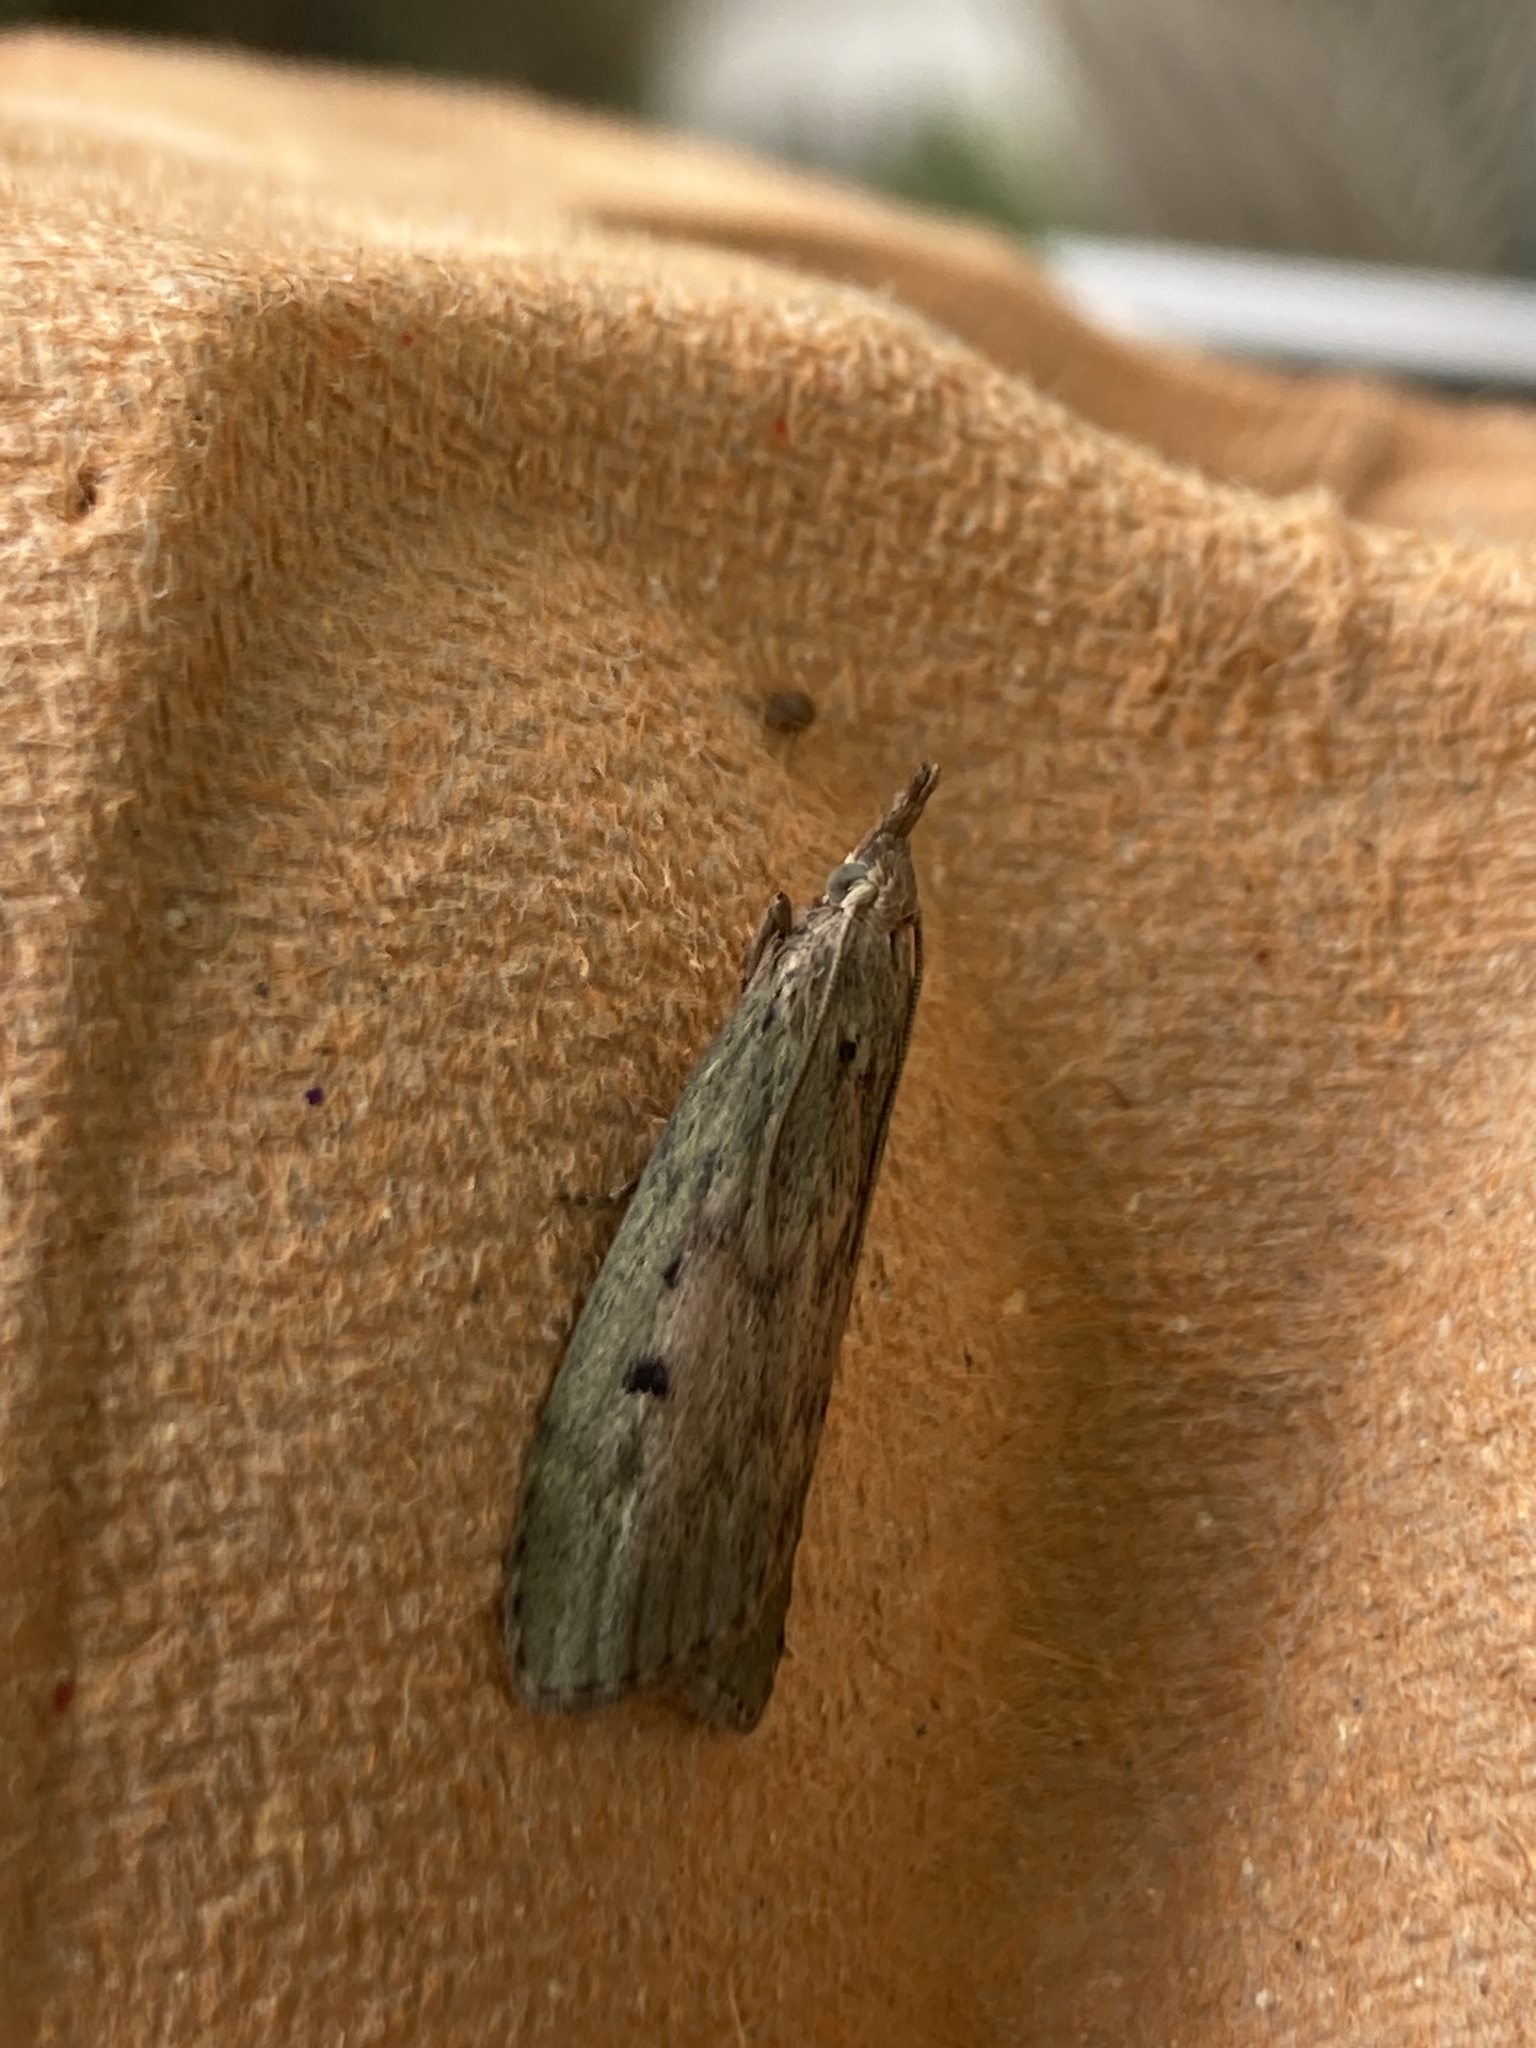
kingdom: Animalia
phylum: Arthropoda
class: Insecta
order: Lepidoptera
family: Pyralidae
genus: Aphomia
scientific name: Aphomia sociella
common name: Bee moth
